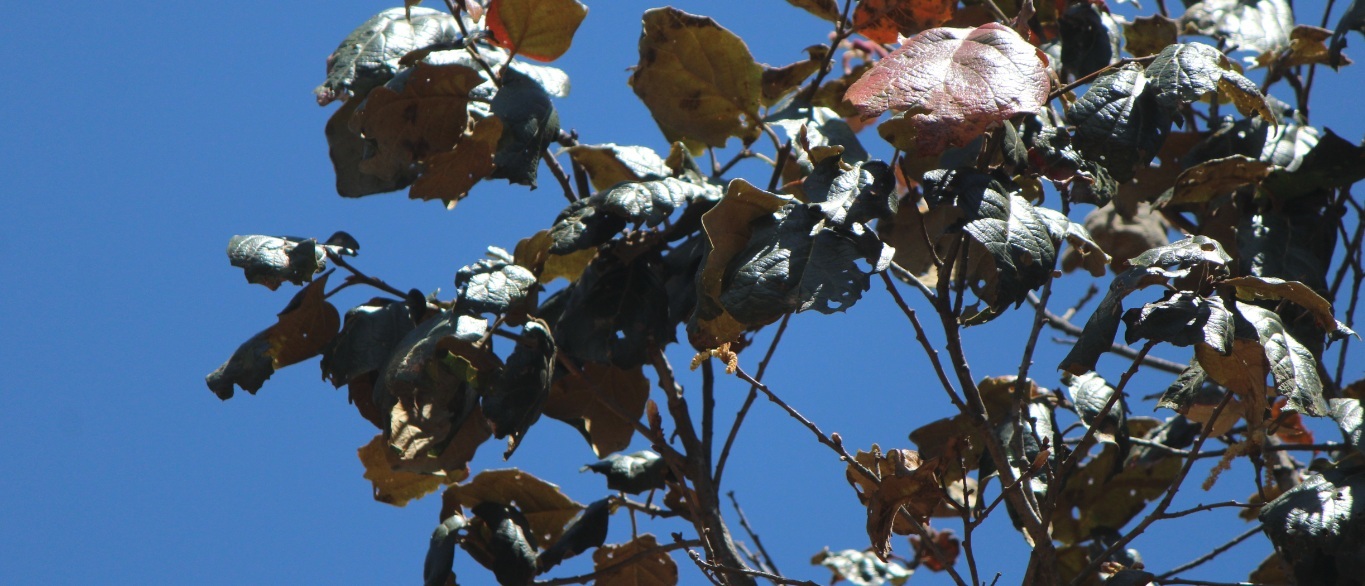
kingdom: Plantae
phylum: Tracheophyta
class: Magnoliopsida
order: Fagales
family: Fagaceae
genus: Quercus
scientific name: Quercus rugosa
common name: Netleaf oak
